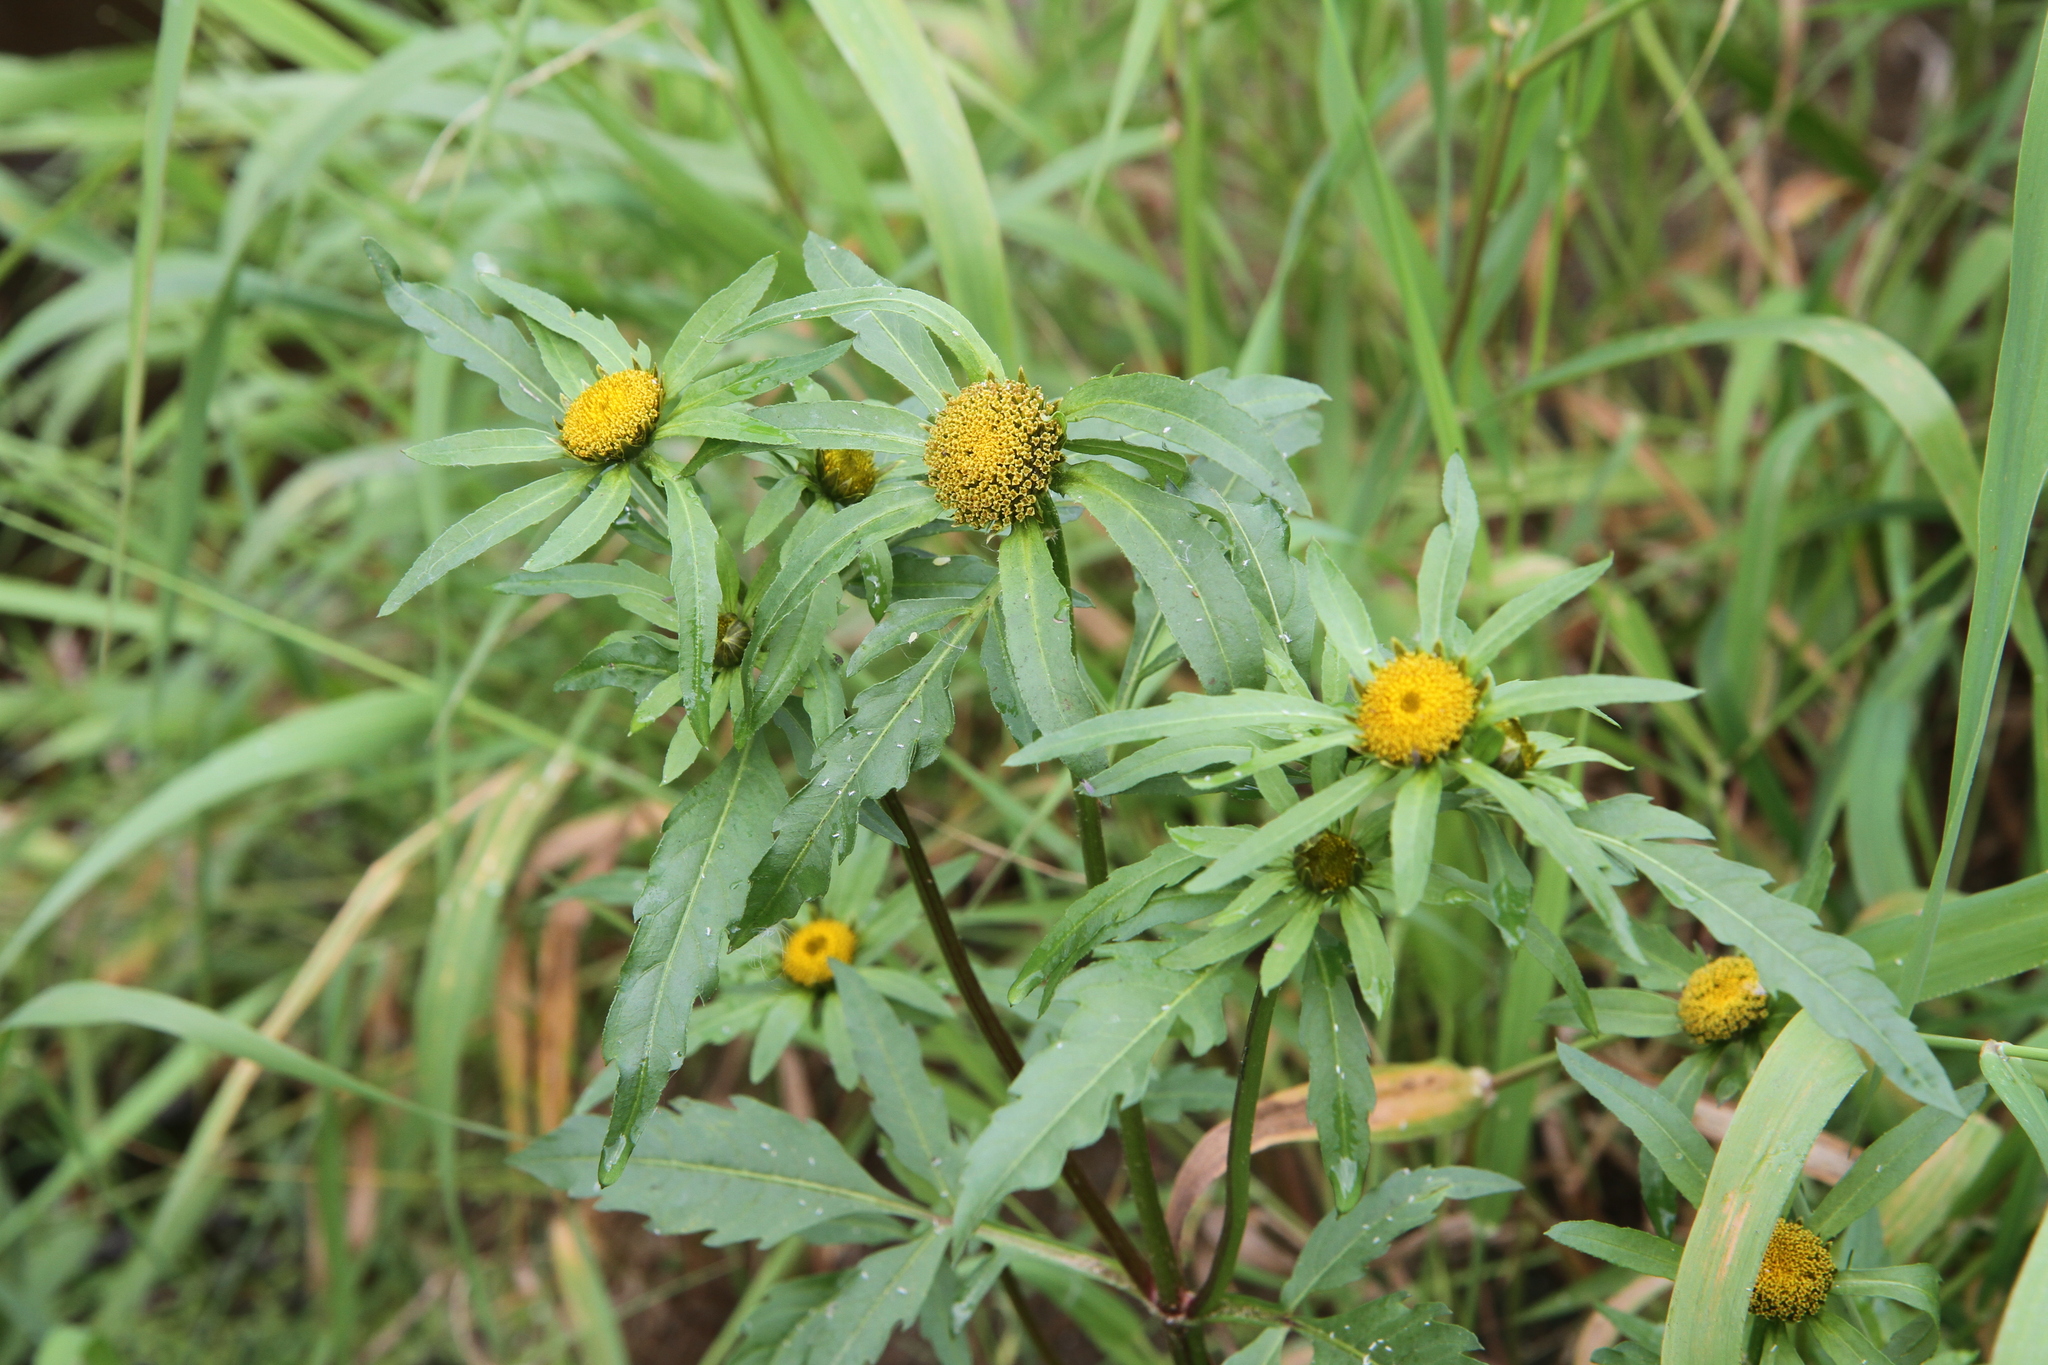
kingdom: Plantae
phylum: Tracheophyta
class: Magnoliopsida
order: Asterales
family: Asteraceae
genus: Bidens
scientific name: Bidens radiata
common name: Radiating bur-marigold
